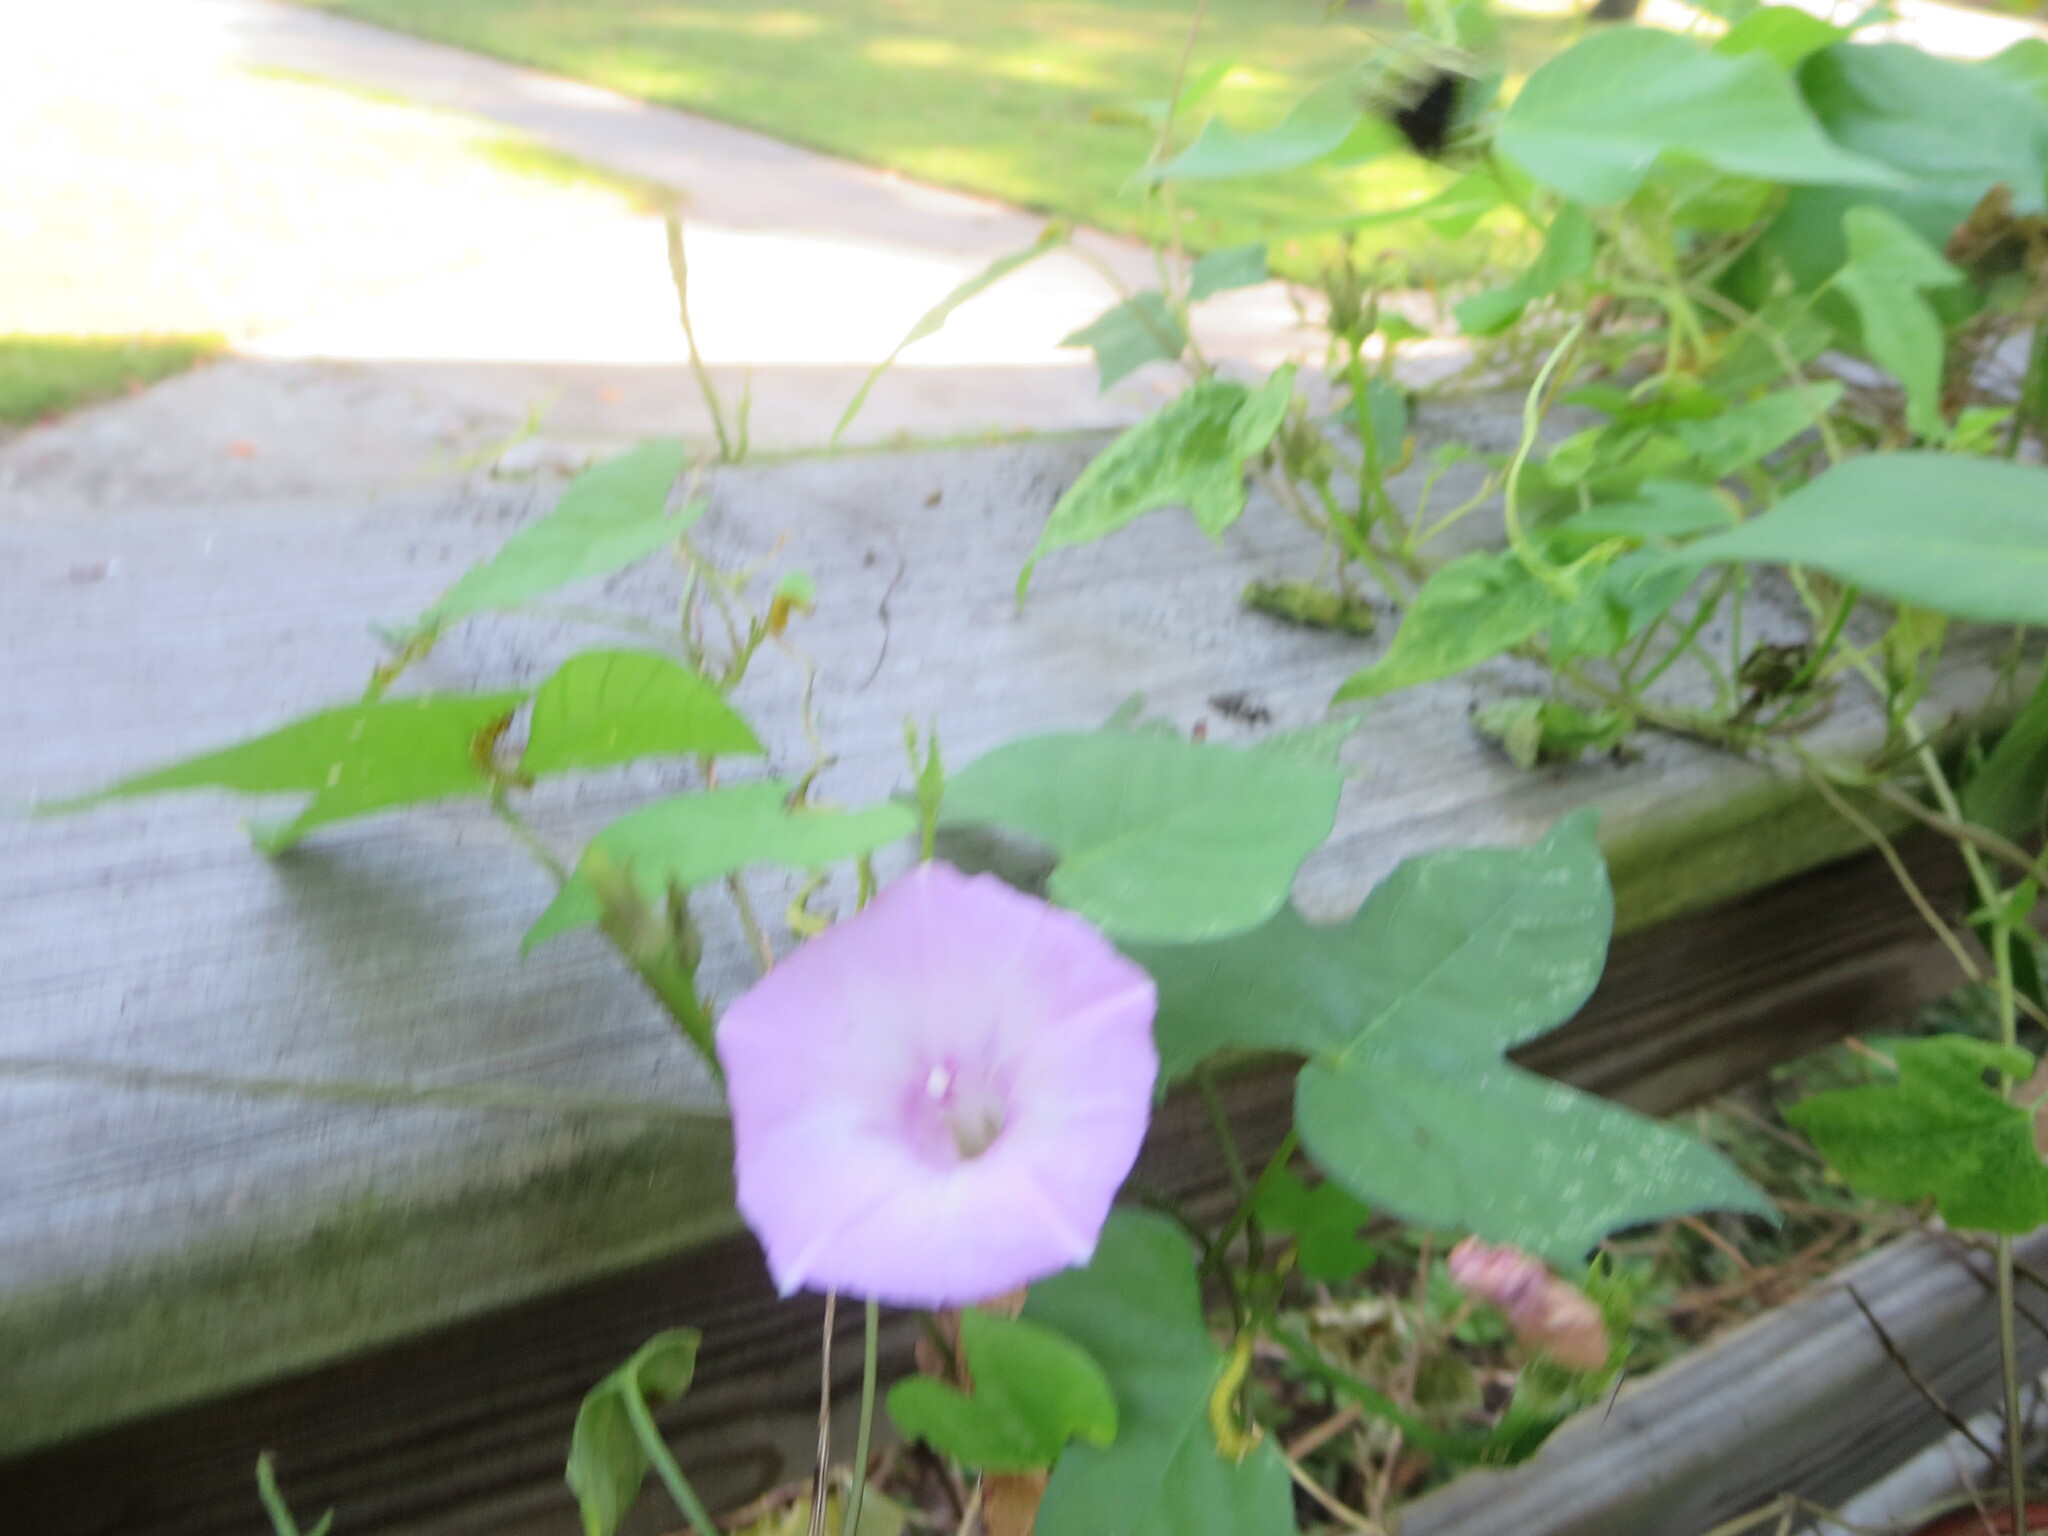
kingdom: Plantae
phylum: Tracheophyta
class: Magnoliopsida
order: Solanales
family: Convolvulaceae
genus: Ipomoea
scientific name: Ipomoea cordatotriloba
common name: Cotton morning glory
